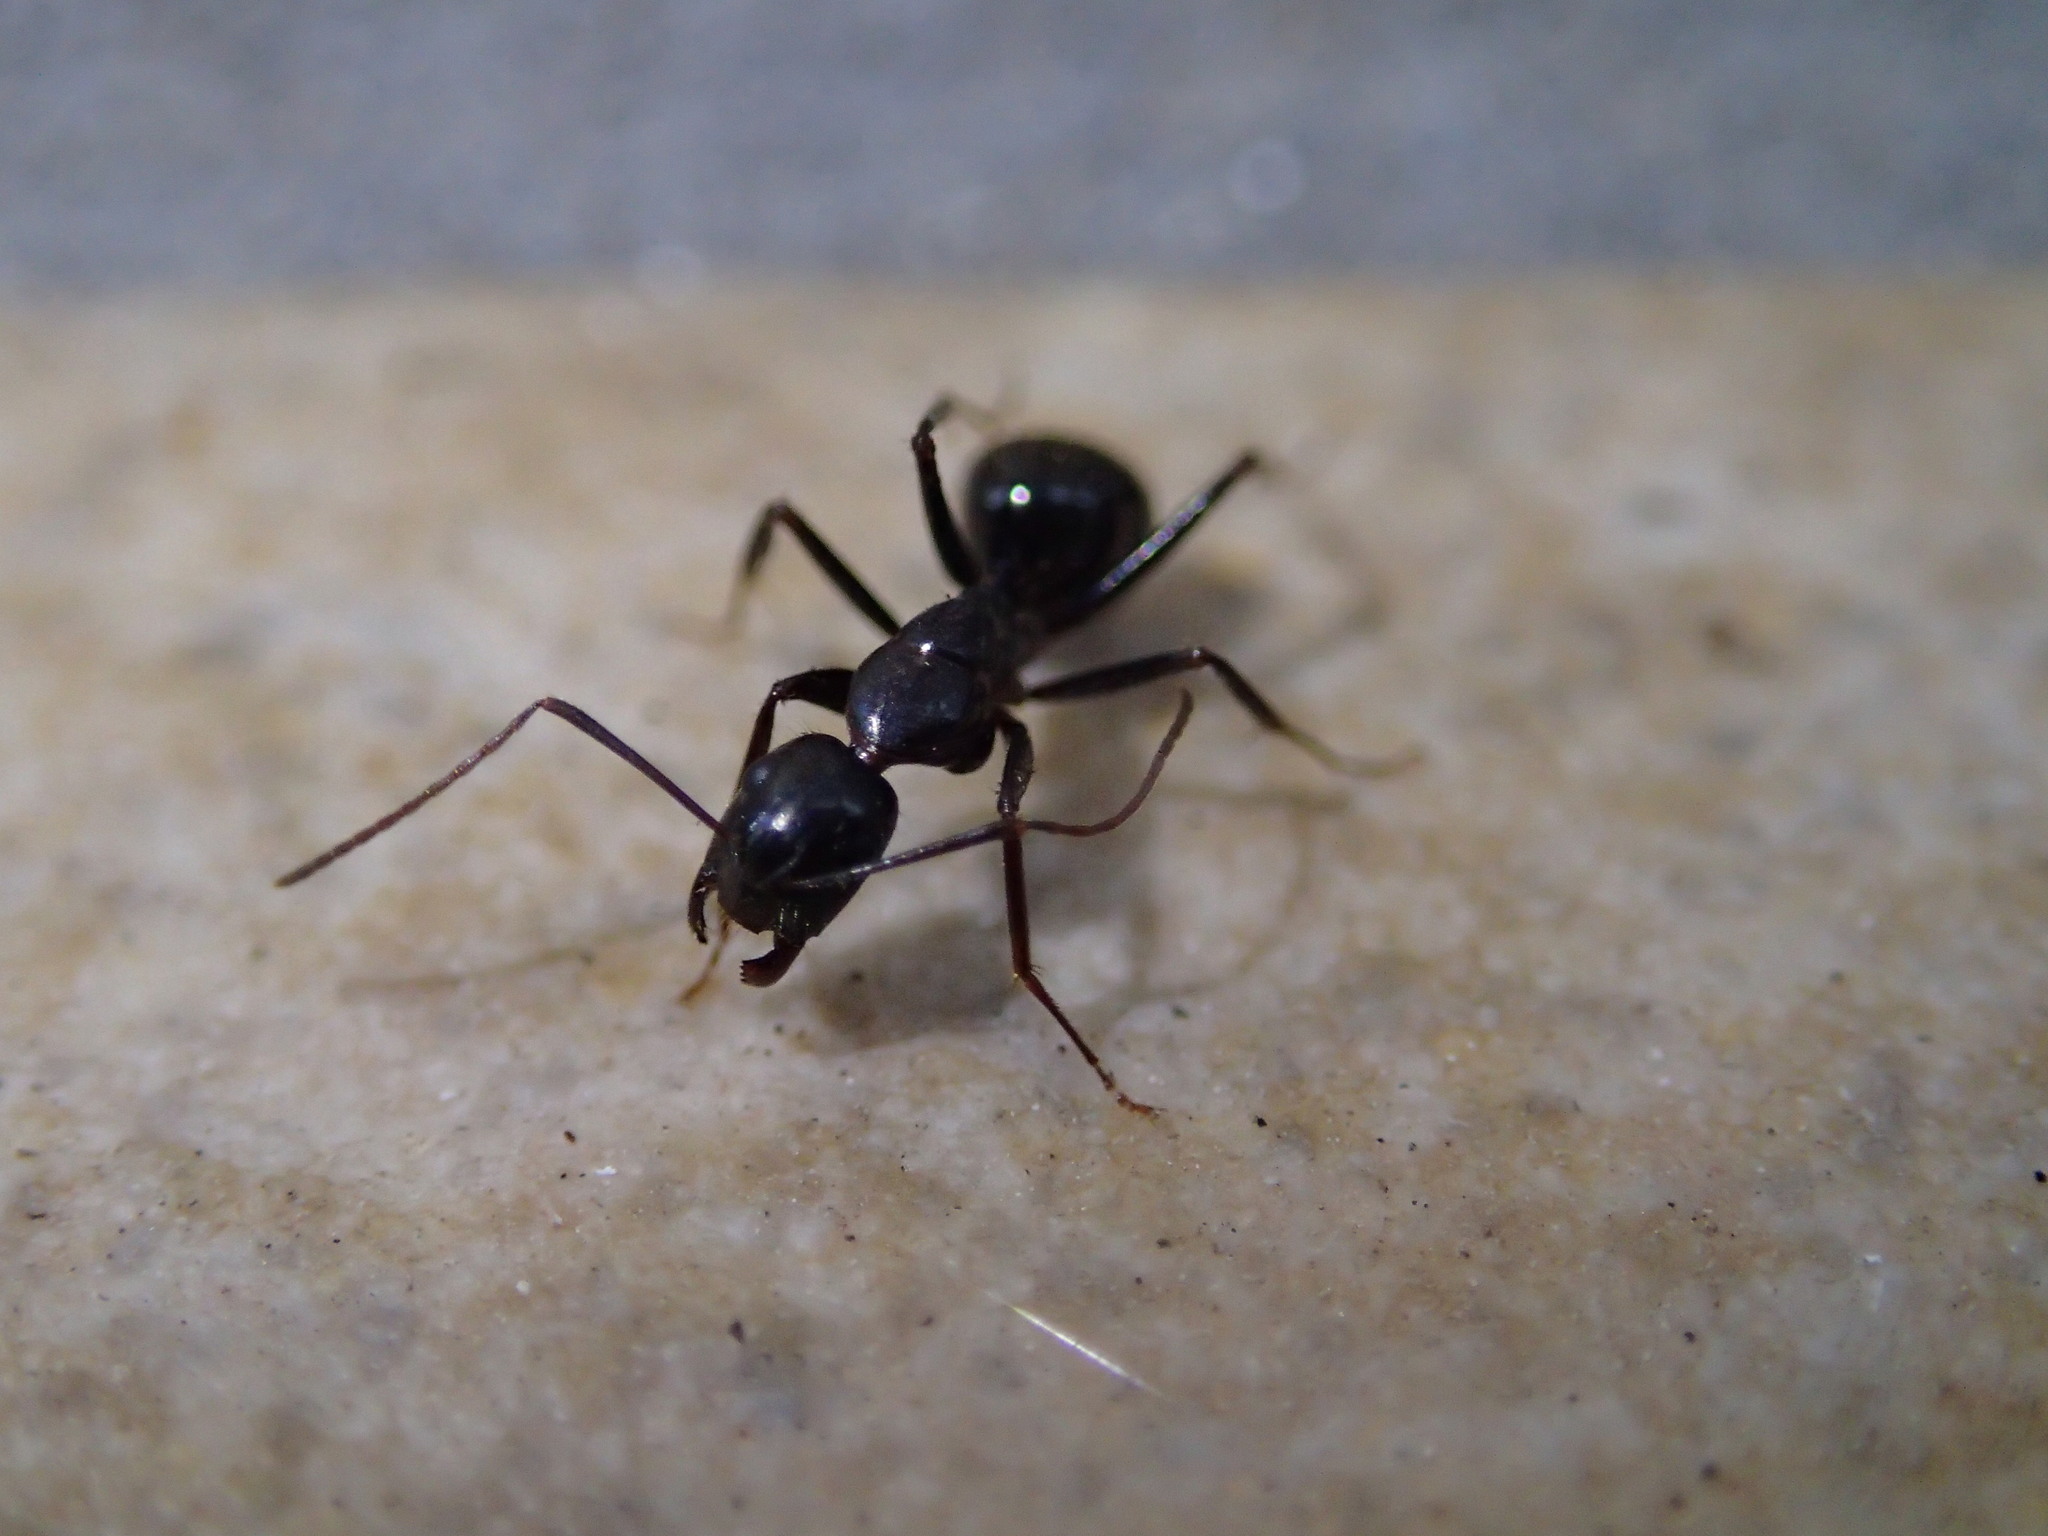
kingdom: Animalia
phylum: Arthropoda
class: Insecta
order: Hymenoptera
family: Formicidae
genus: Camponotus
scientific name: Camponotus aethiops
